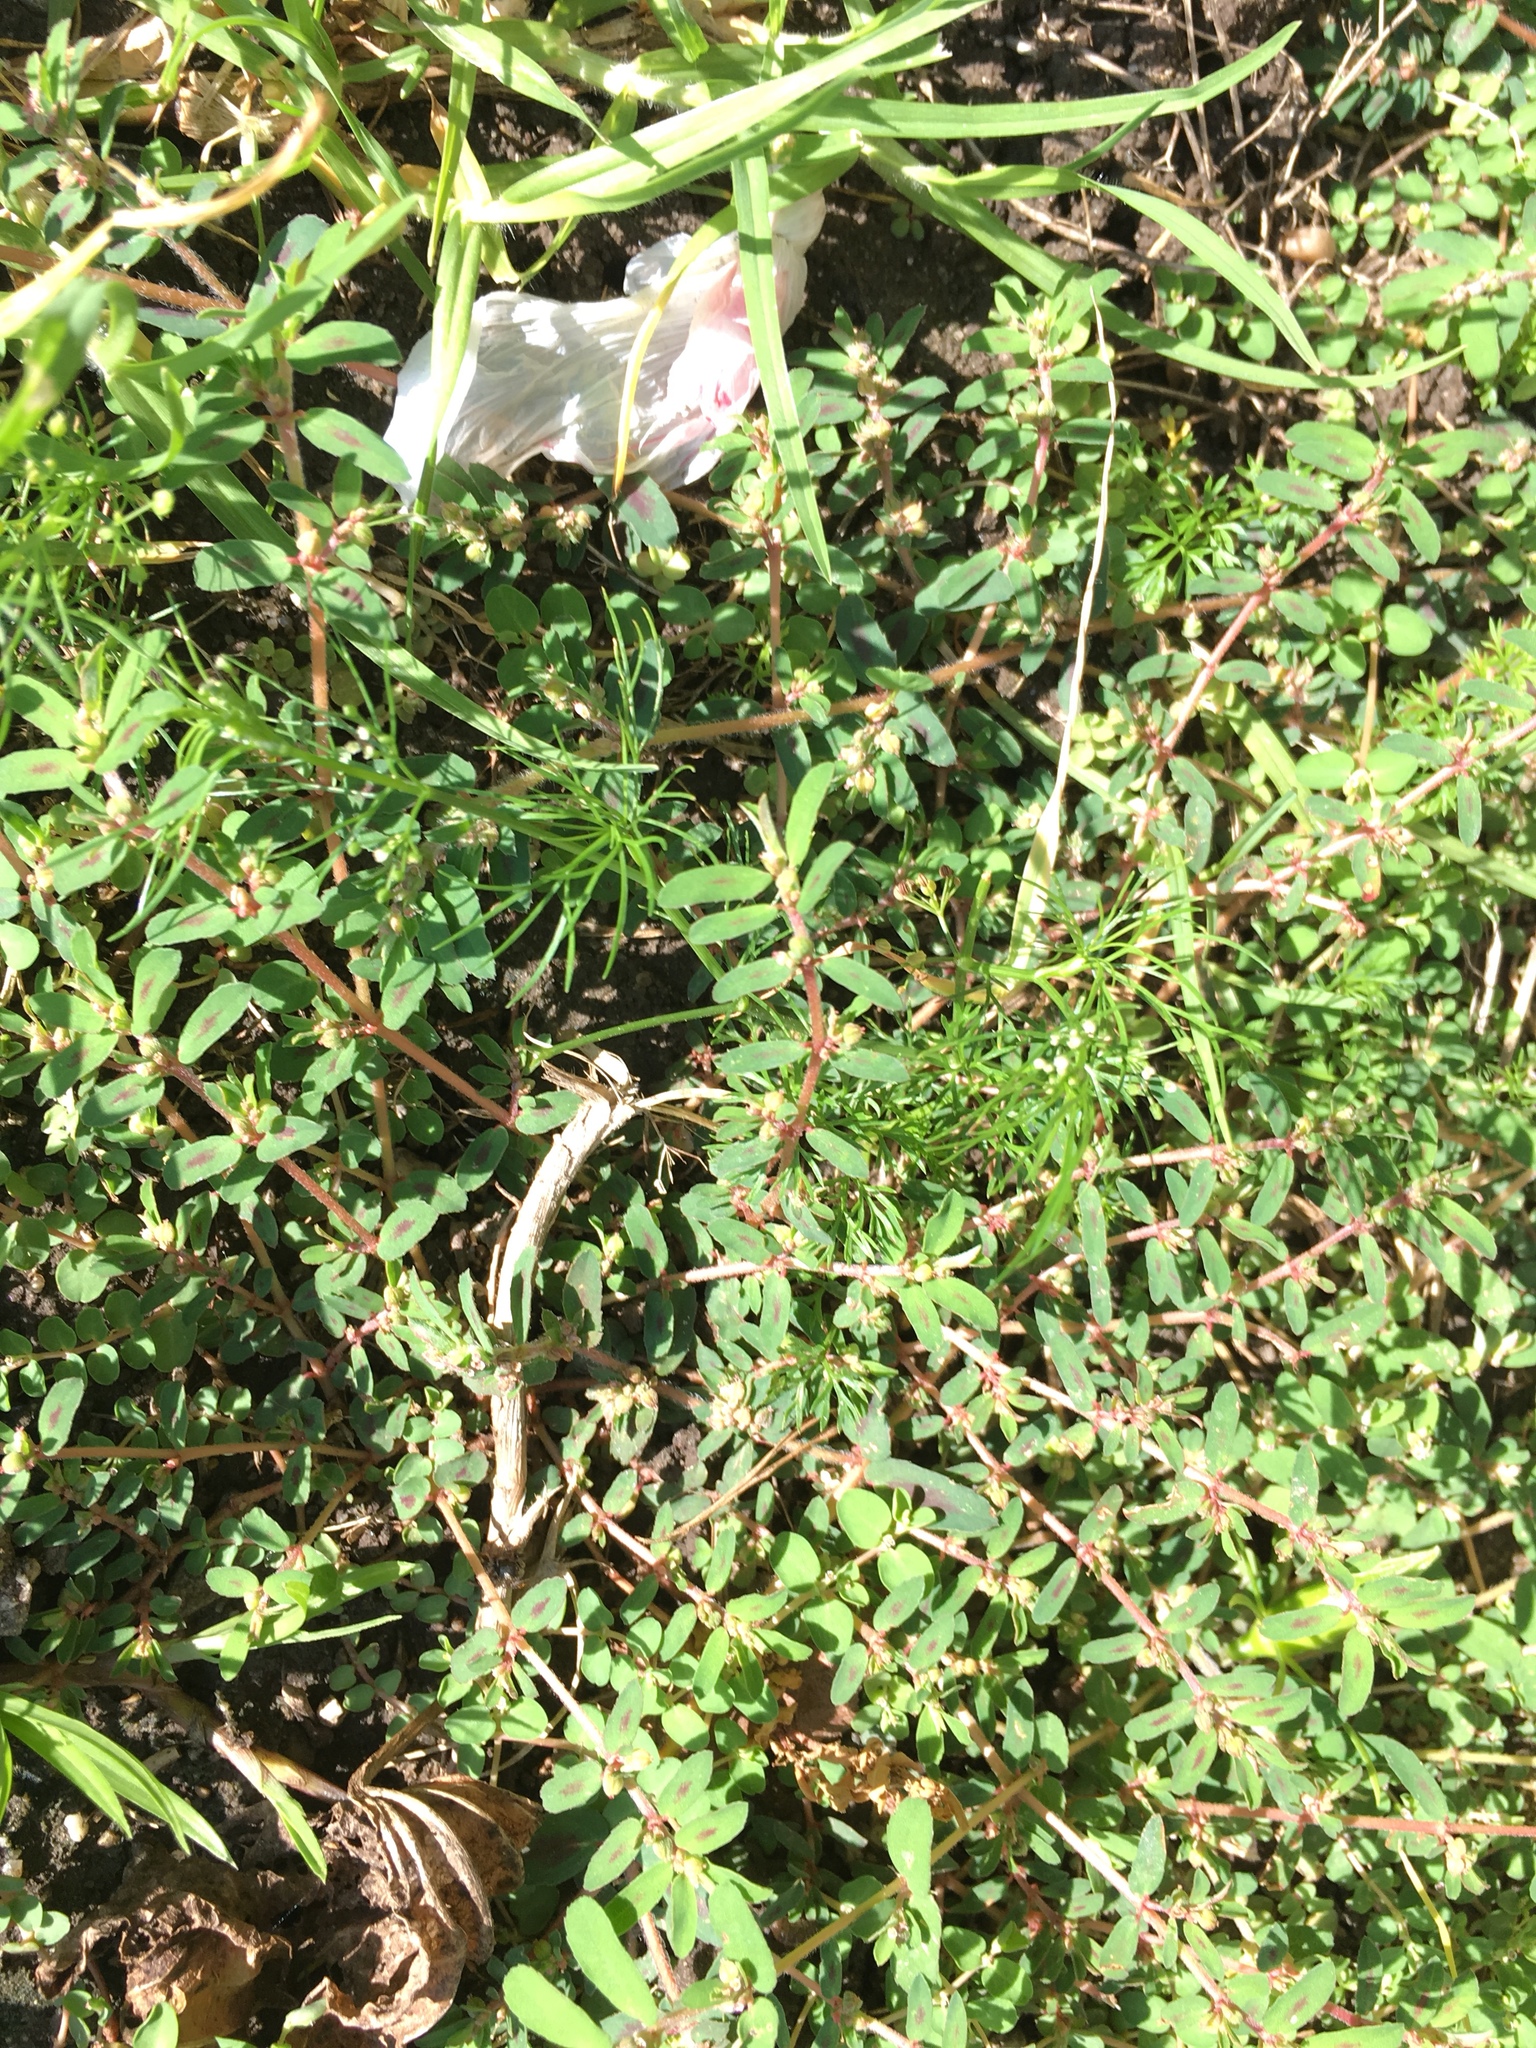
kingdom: Plantae
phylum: Tracheophyta
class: Magnoliopsida
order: Malpighiales
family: Euphorbiaceae
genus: Euphorbia
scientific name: Euphorbia maculata
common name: Spotted spurge
